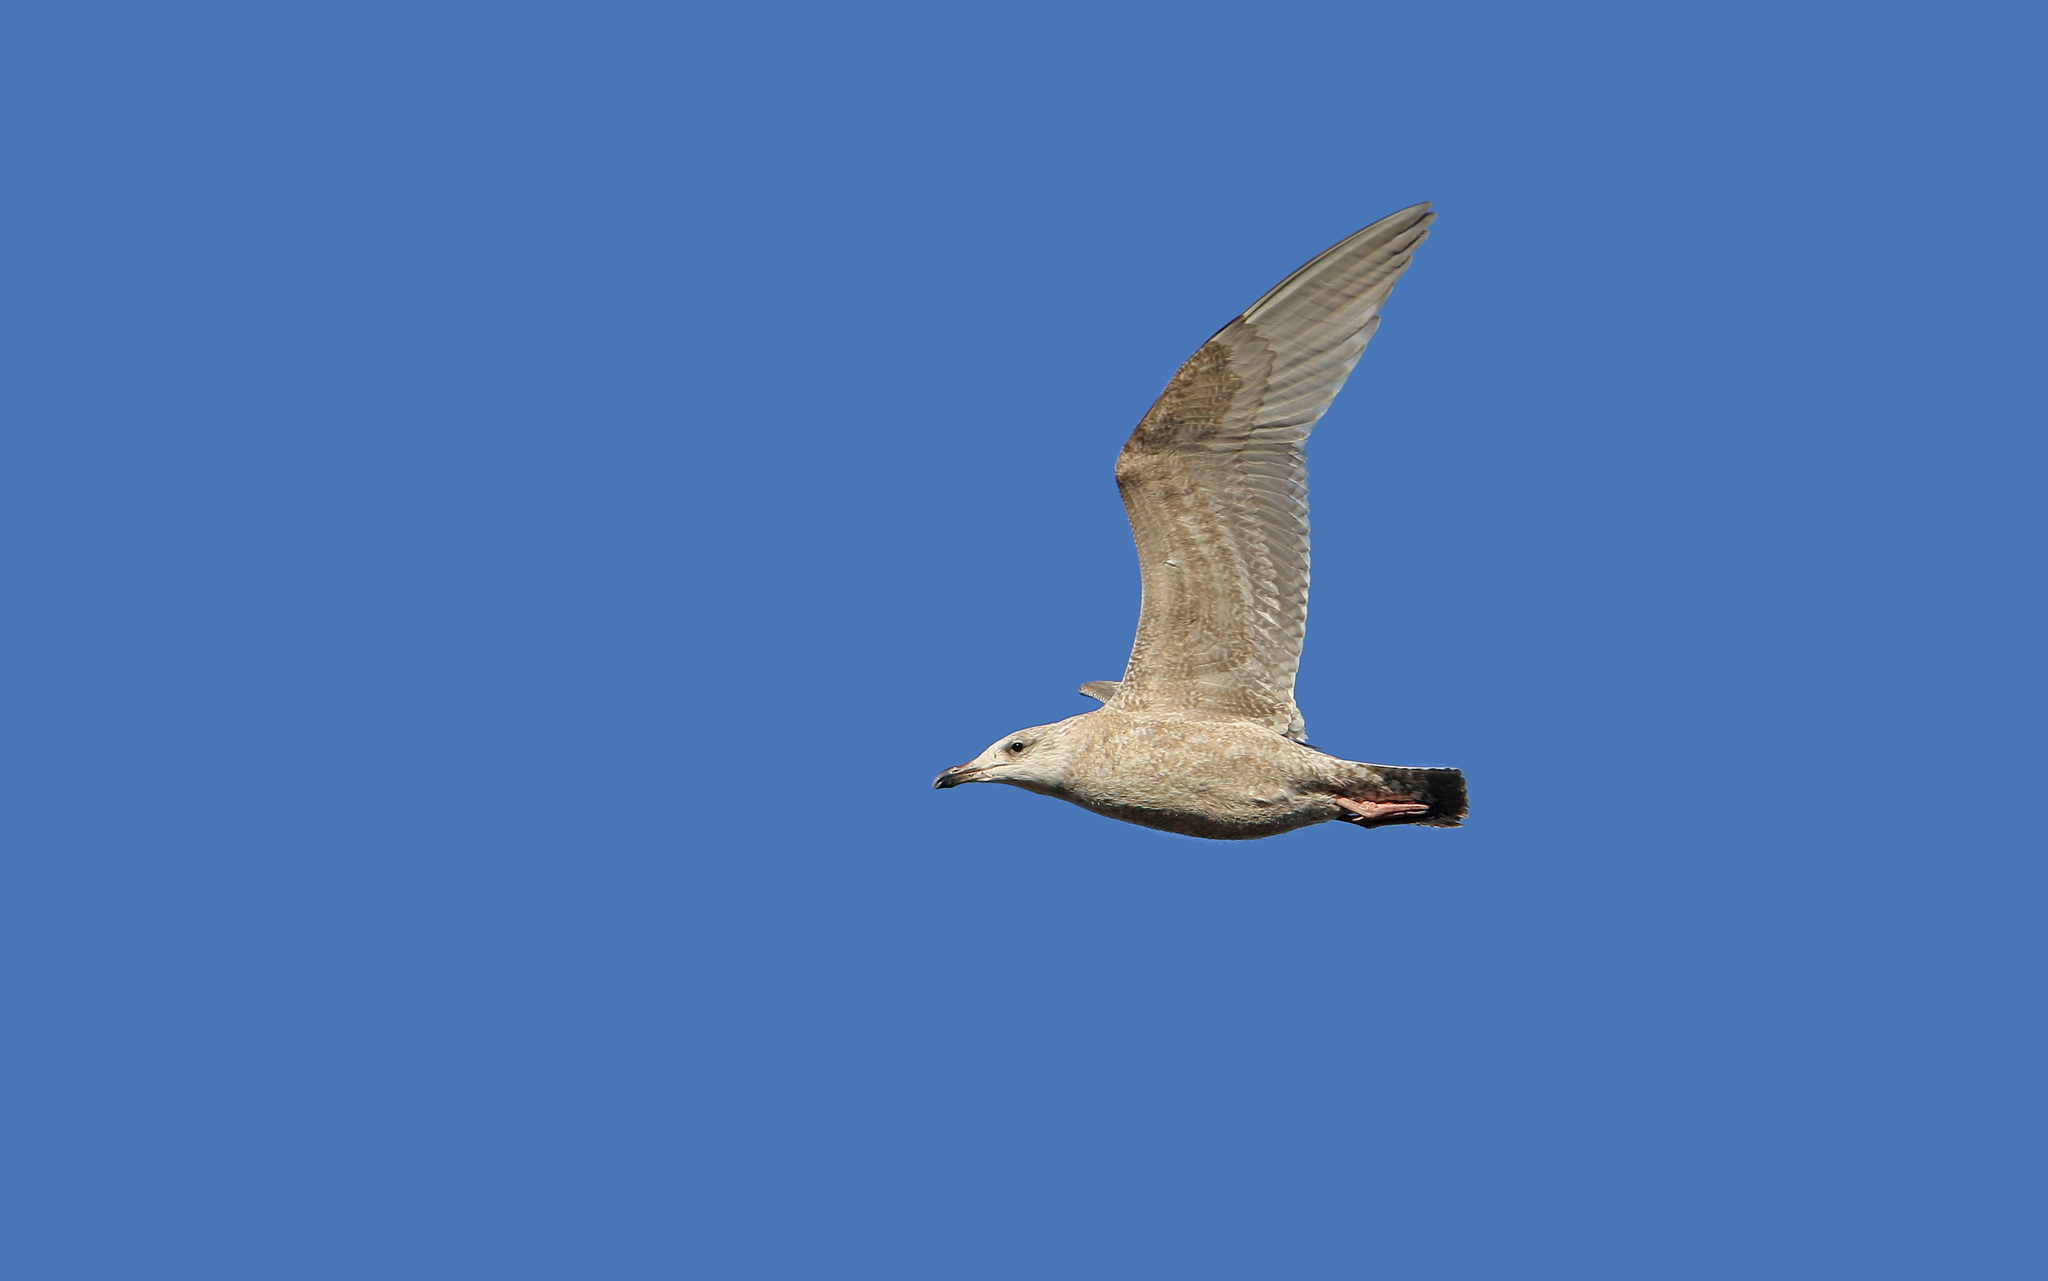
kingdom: Animalia
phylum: Chordata
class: Aves
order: Charadriiformes
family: Laridae
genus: Larus
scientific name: Larus argentatus
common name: Herring gull
